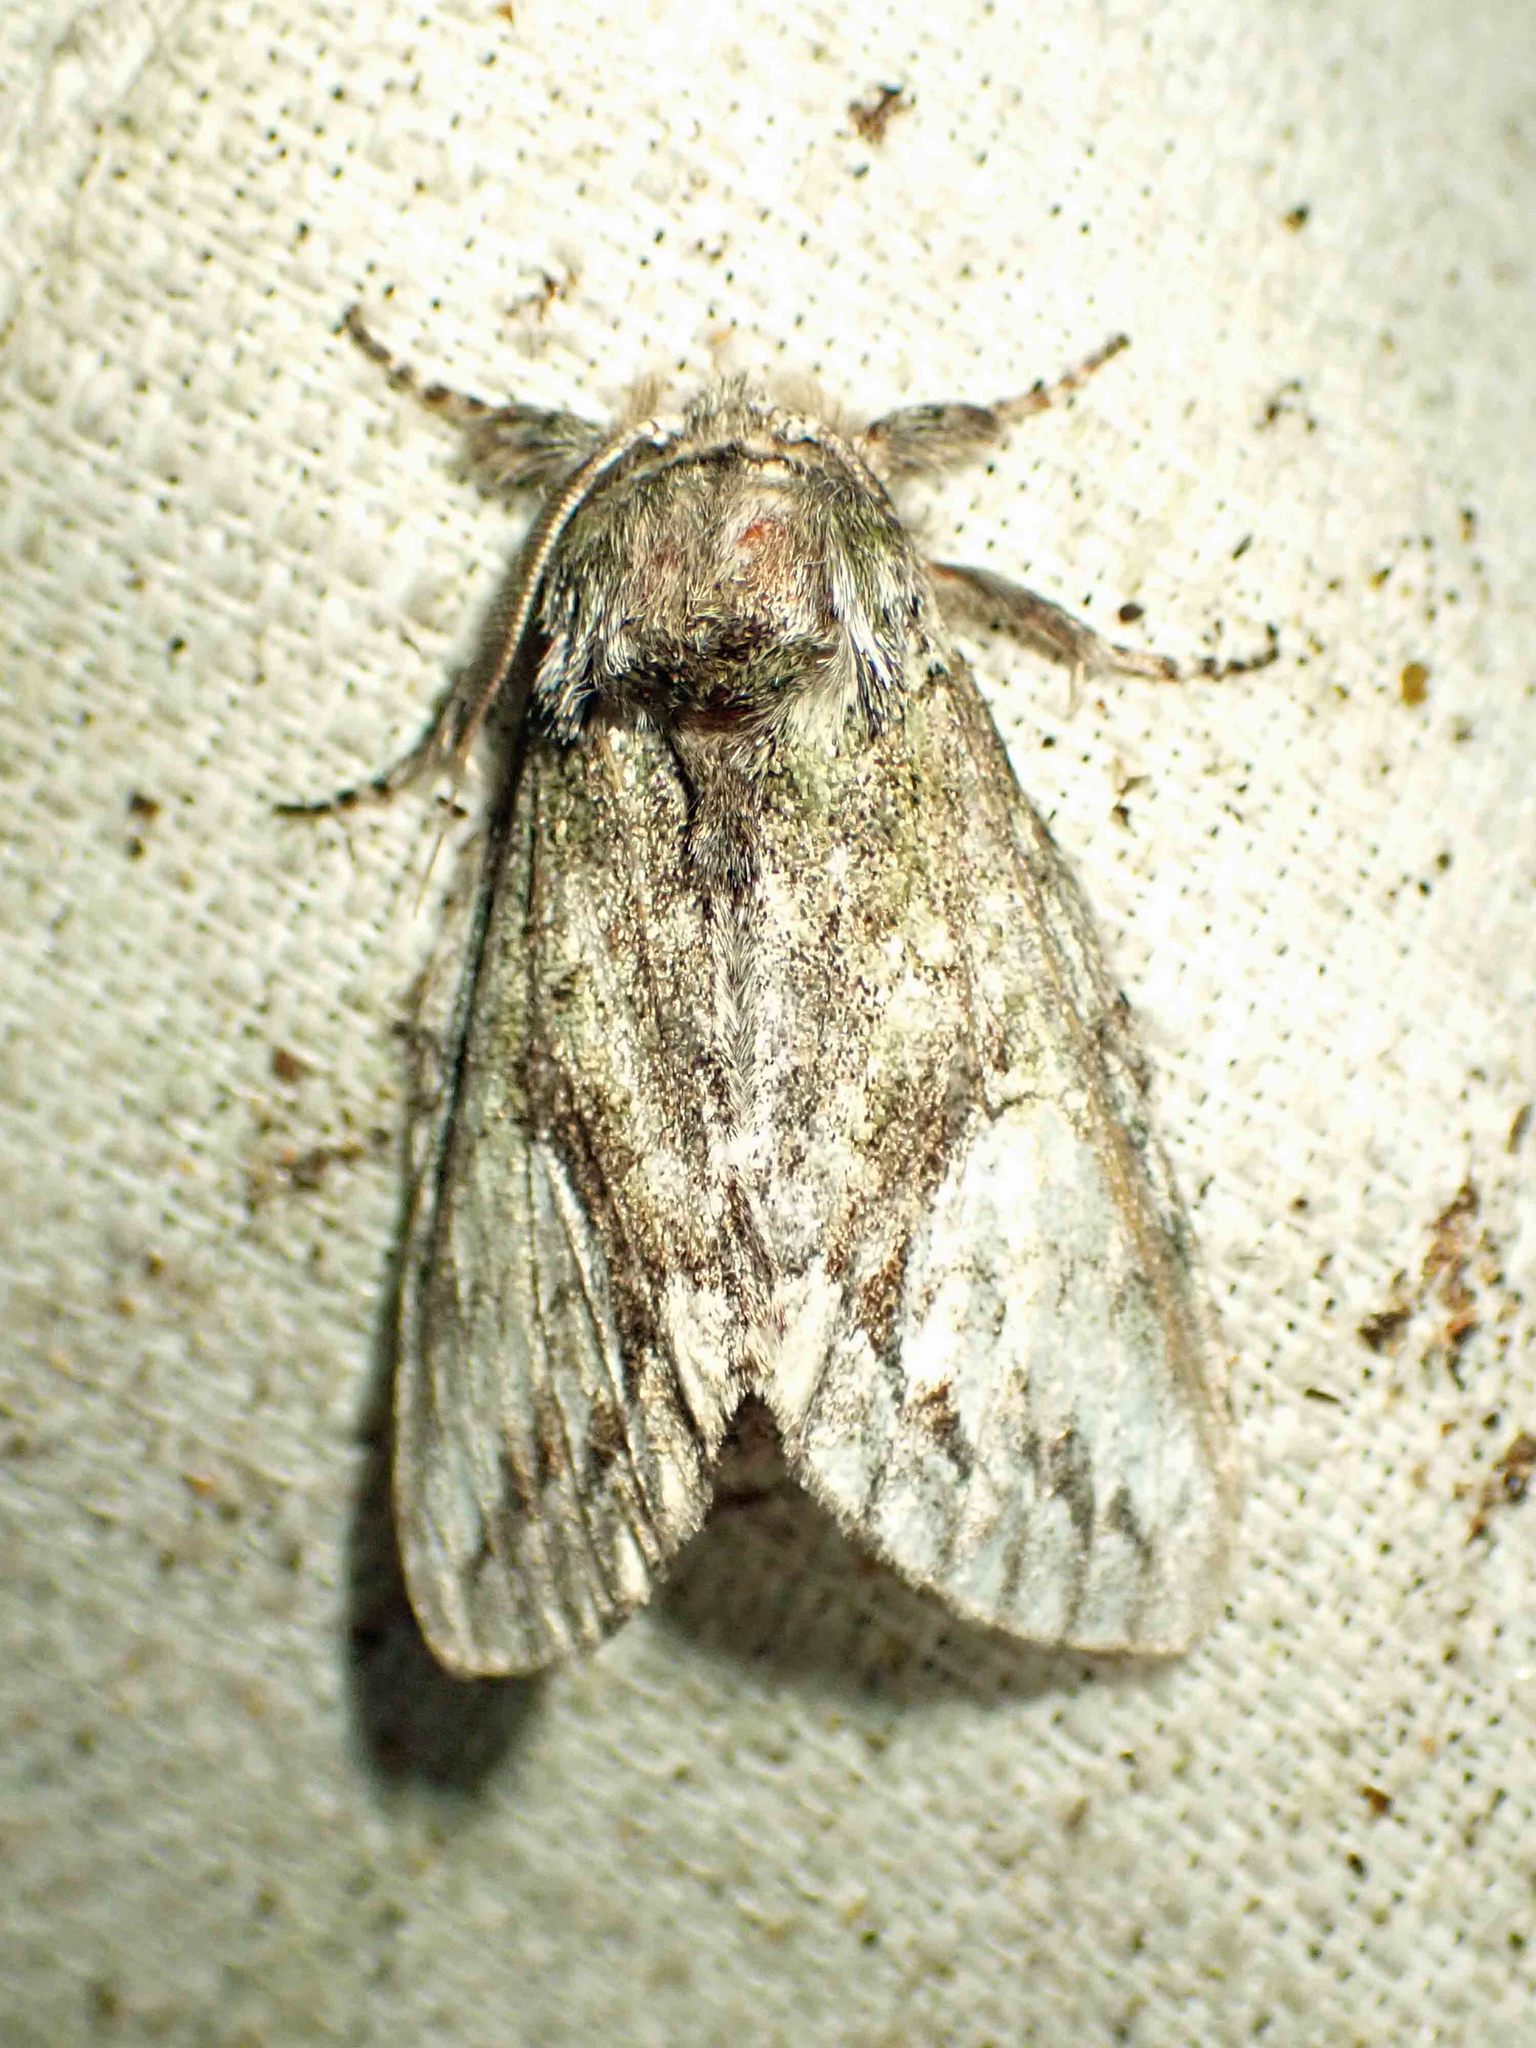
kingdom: Animalia
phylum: Arthropoda
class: Insecta
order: Lepidoptera
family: Notodontidae
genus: Heterocampa
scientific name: Heterocampa
